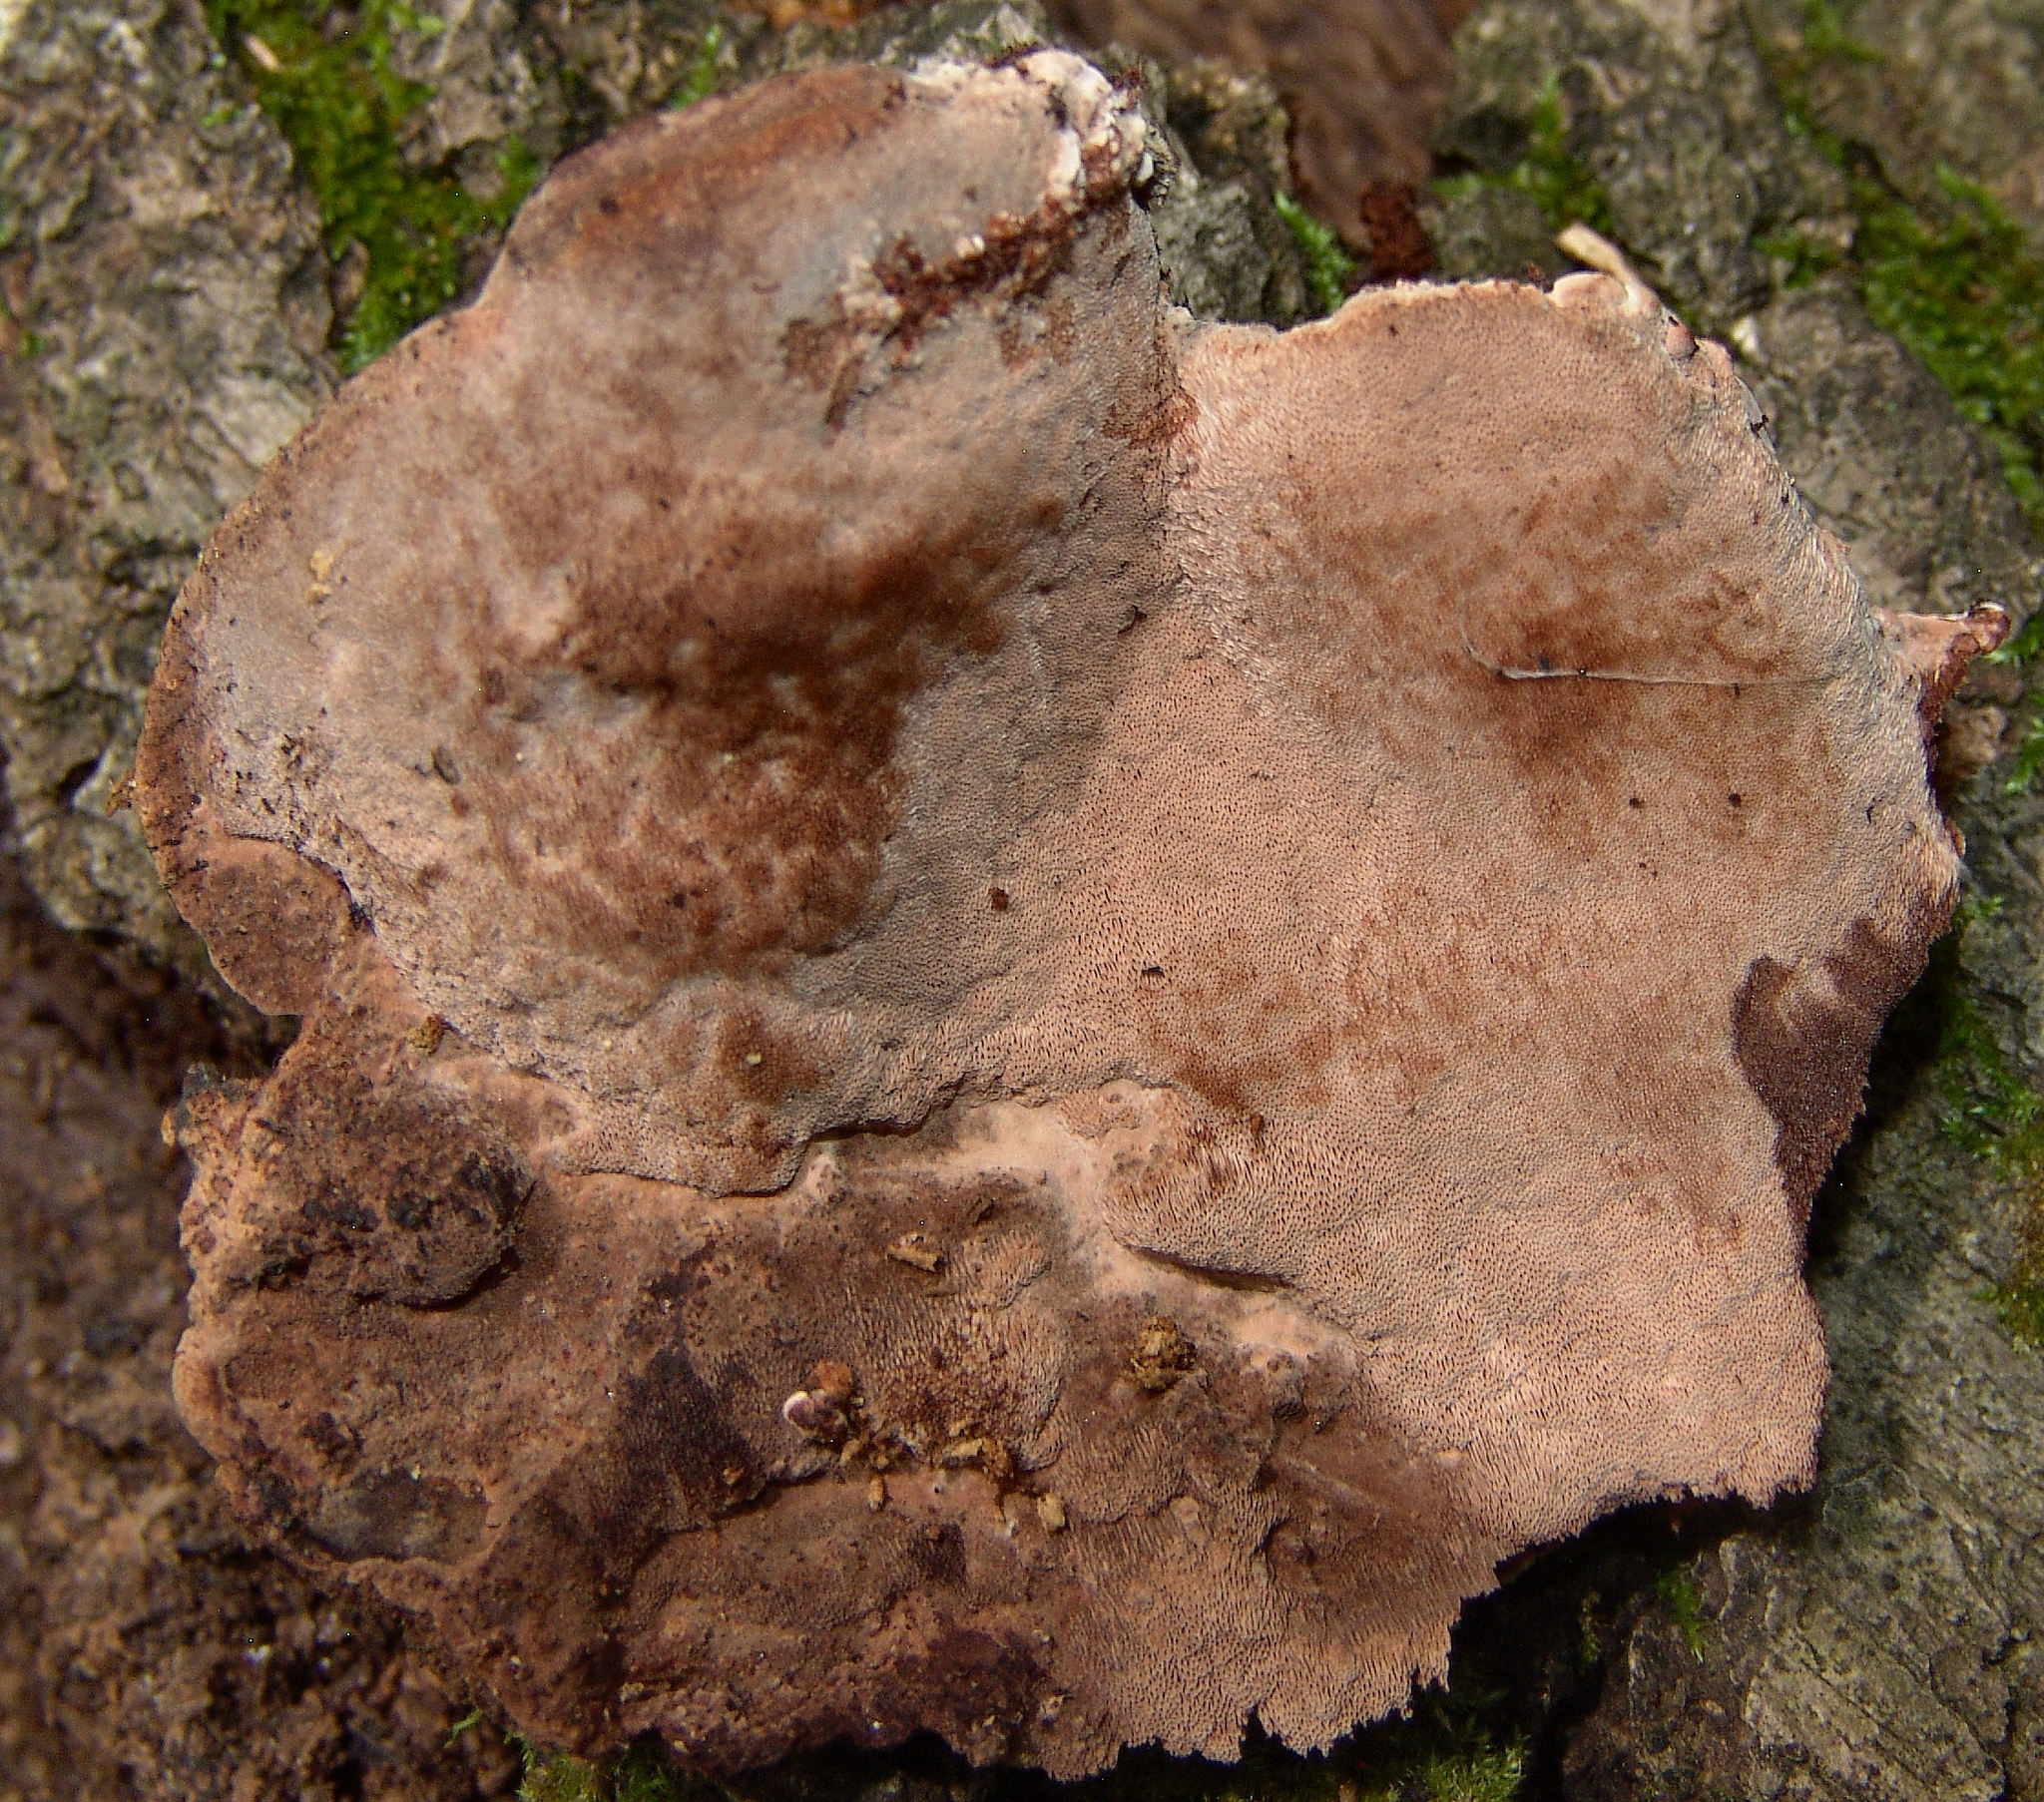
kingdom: Fungi
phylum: Basidiomycota
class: Agaricomycetes
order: Polyporales
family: Steccherinaceae
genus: Nigroporus
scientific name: Nigroporus vinosus
